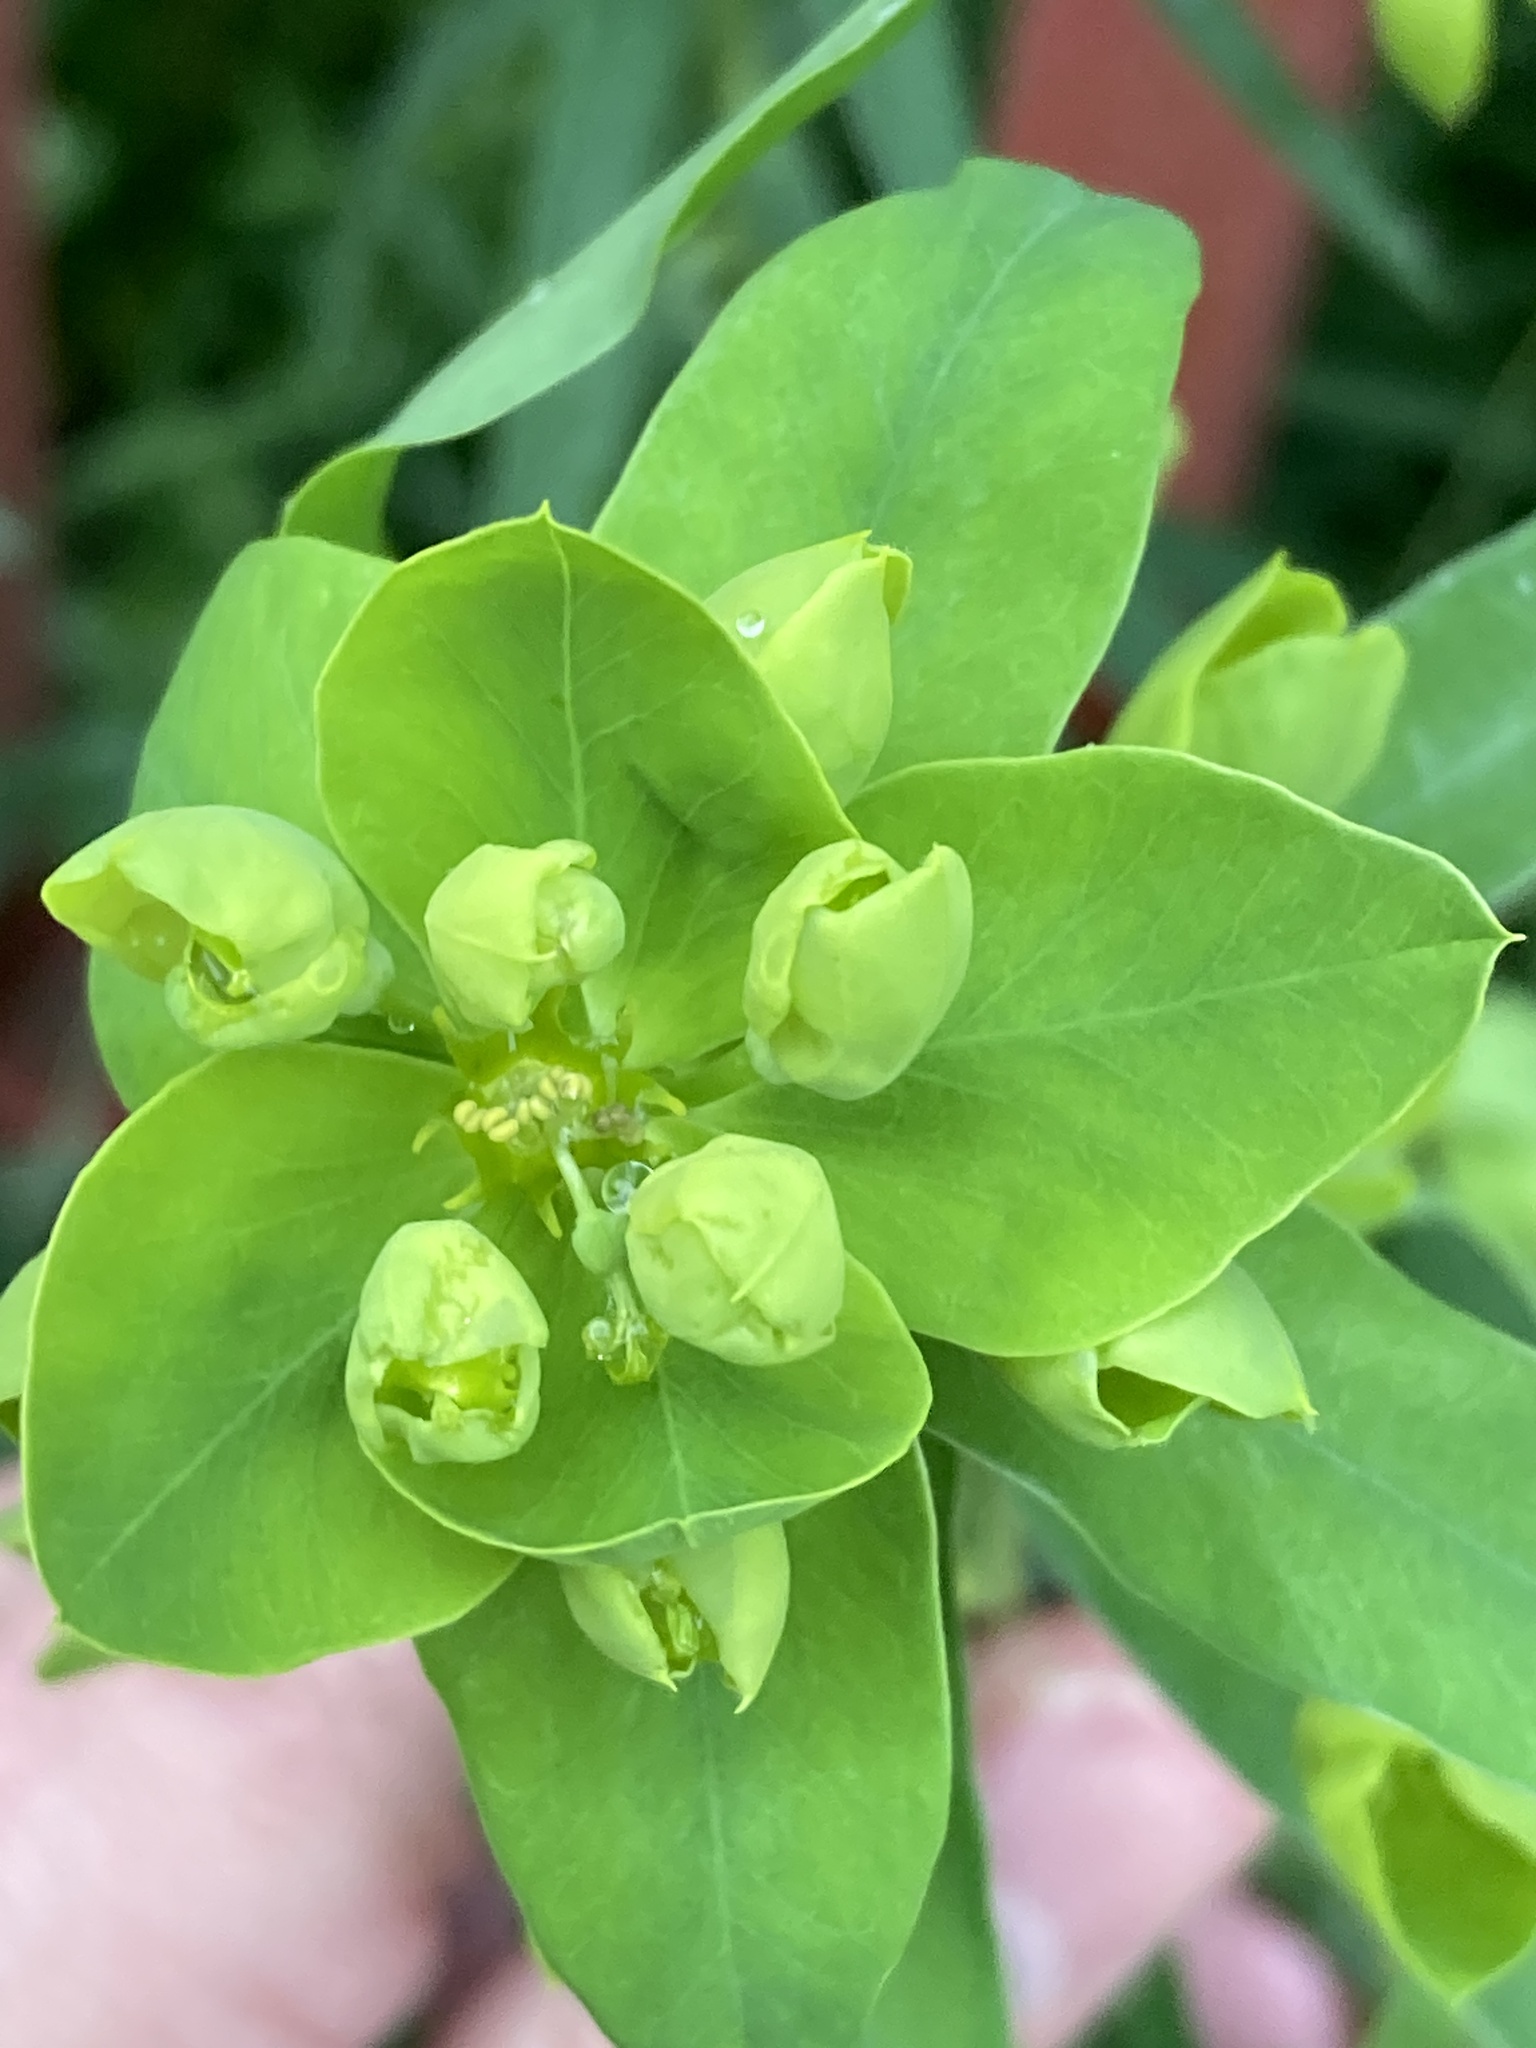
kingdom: Plantae
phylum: Tracheophyta
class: Magnoliopsida
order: Malpighiales
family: Euphorbiaceae
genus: Euphorbia
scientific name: Euphorbia virgata
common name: Leafy spurge
